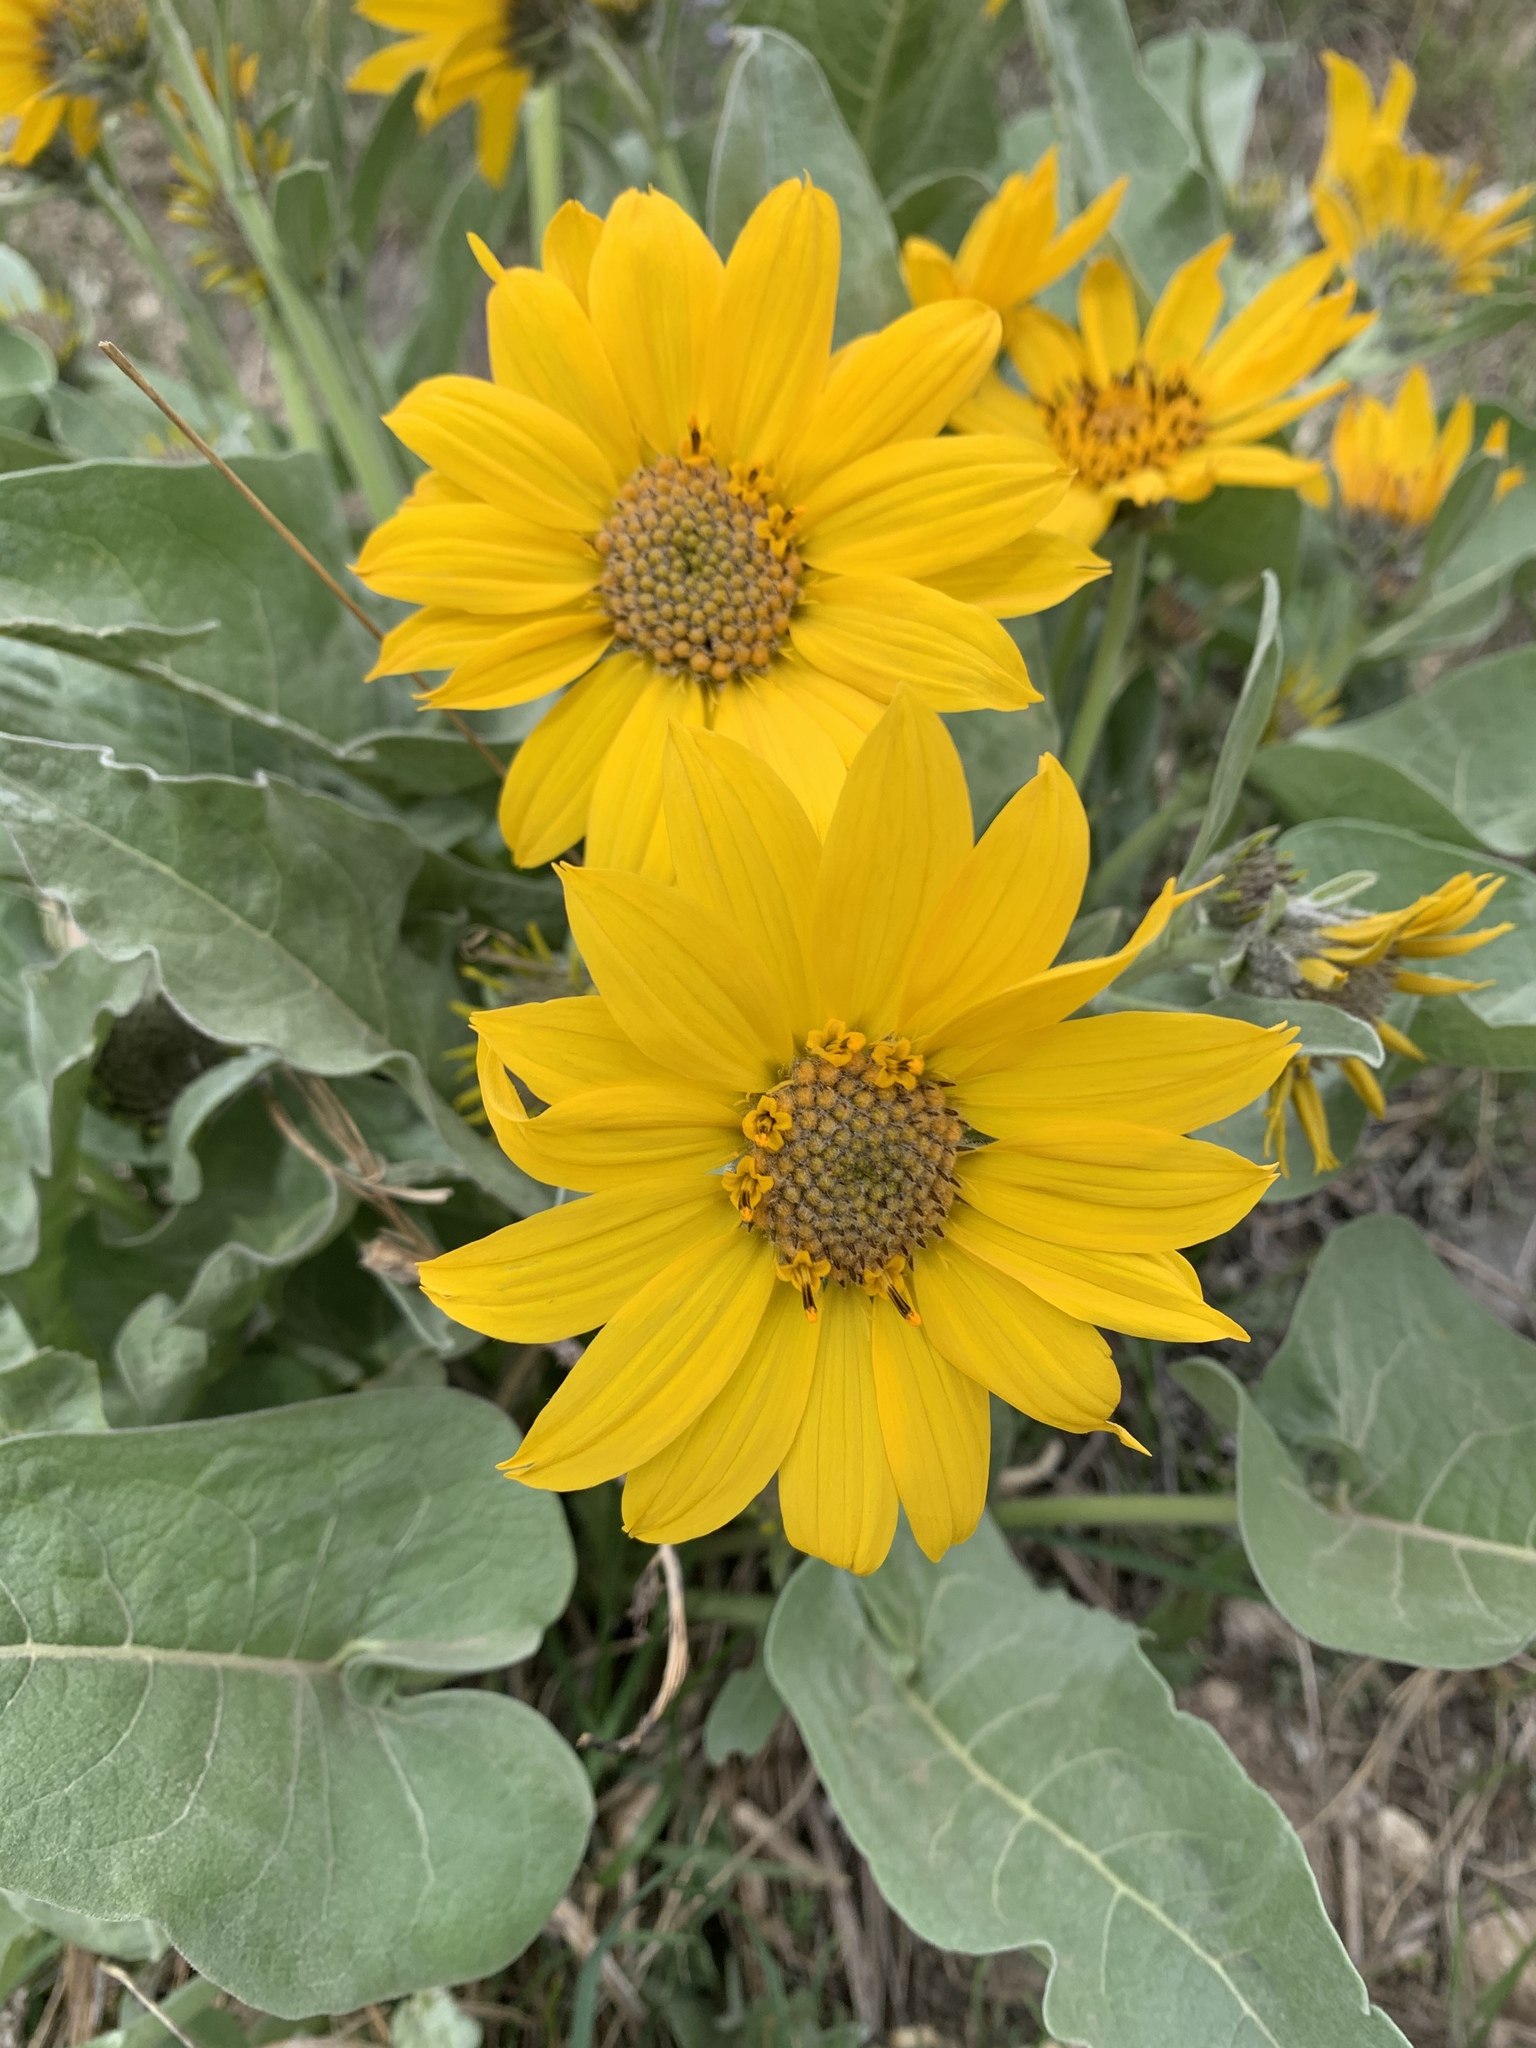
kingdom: Plantae
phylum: Tracheophyta
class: Magnoliopsida
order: Asterales
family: Asteraceae
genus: Wyethia
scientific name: Wyethia sagittata
